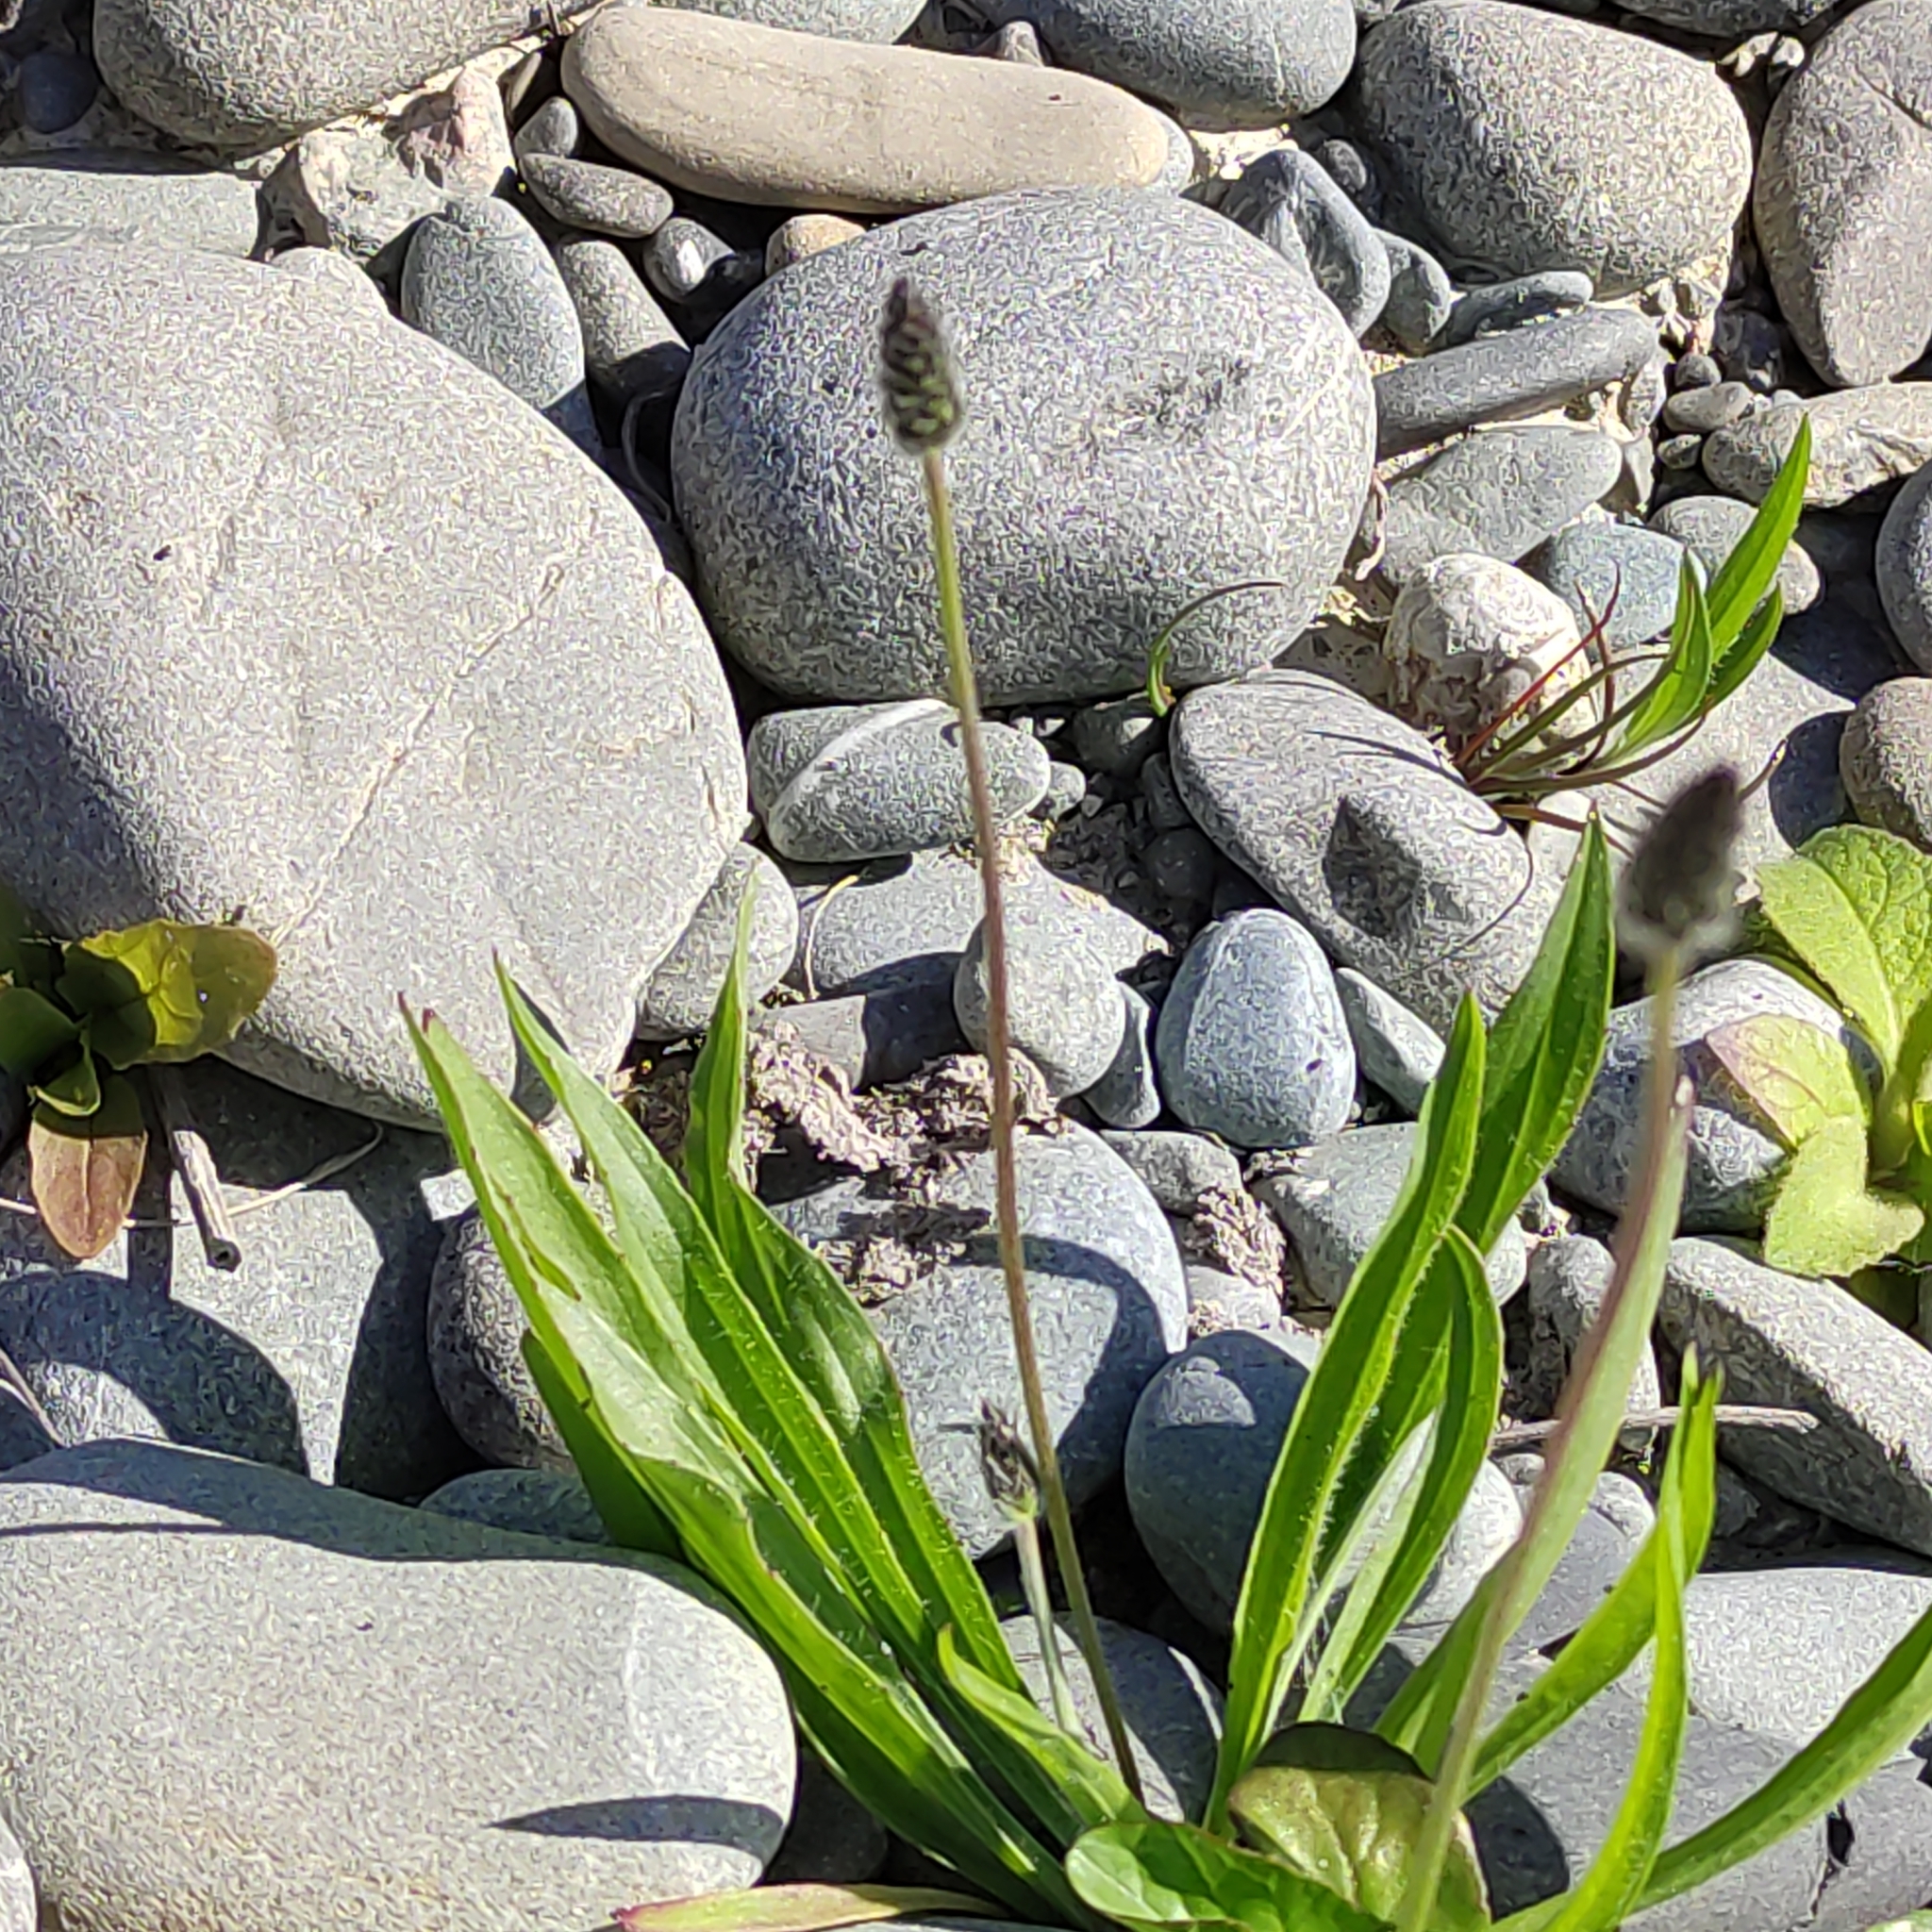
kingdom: Plantae
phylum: Tracheophyta
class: Magnoliopsida
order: Lamiales
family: Plantaginaceae
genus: Plantago
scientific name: Plantago lanceolata
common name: Ribwort plantain
